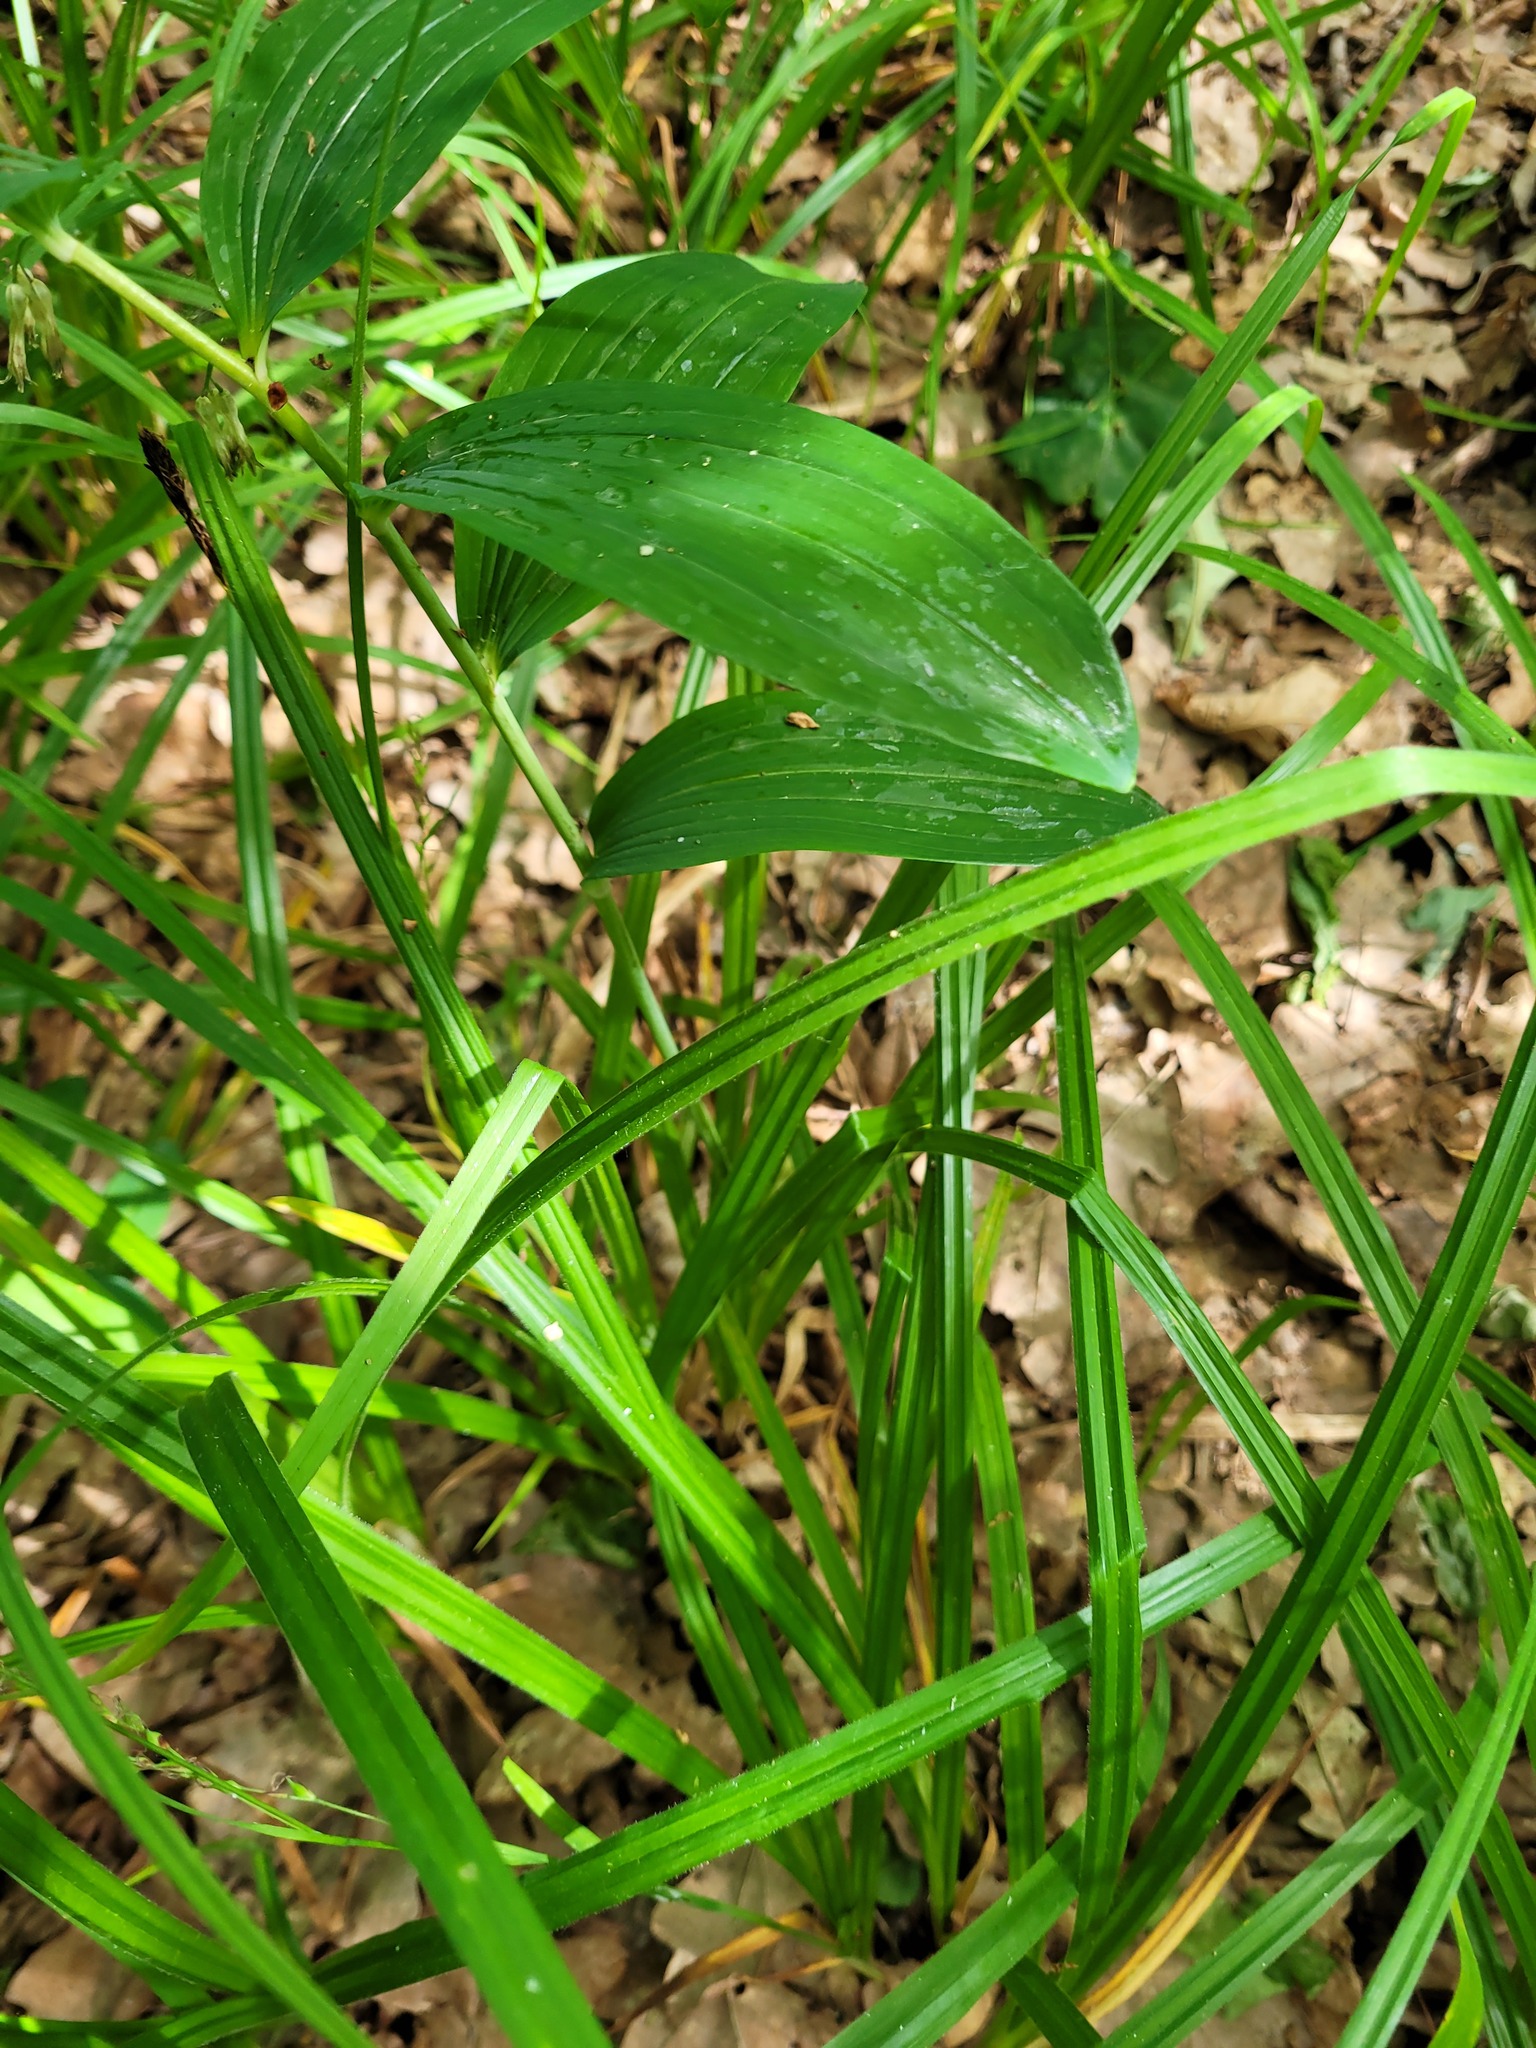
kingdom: Plantae
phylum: Tracheophyta
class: Liliopsida
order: Asparagales
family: Asparagaceae
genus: Polygonatum
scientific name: Polygonatum multiflorum
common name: Solomon's-seal
